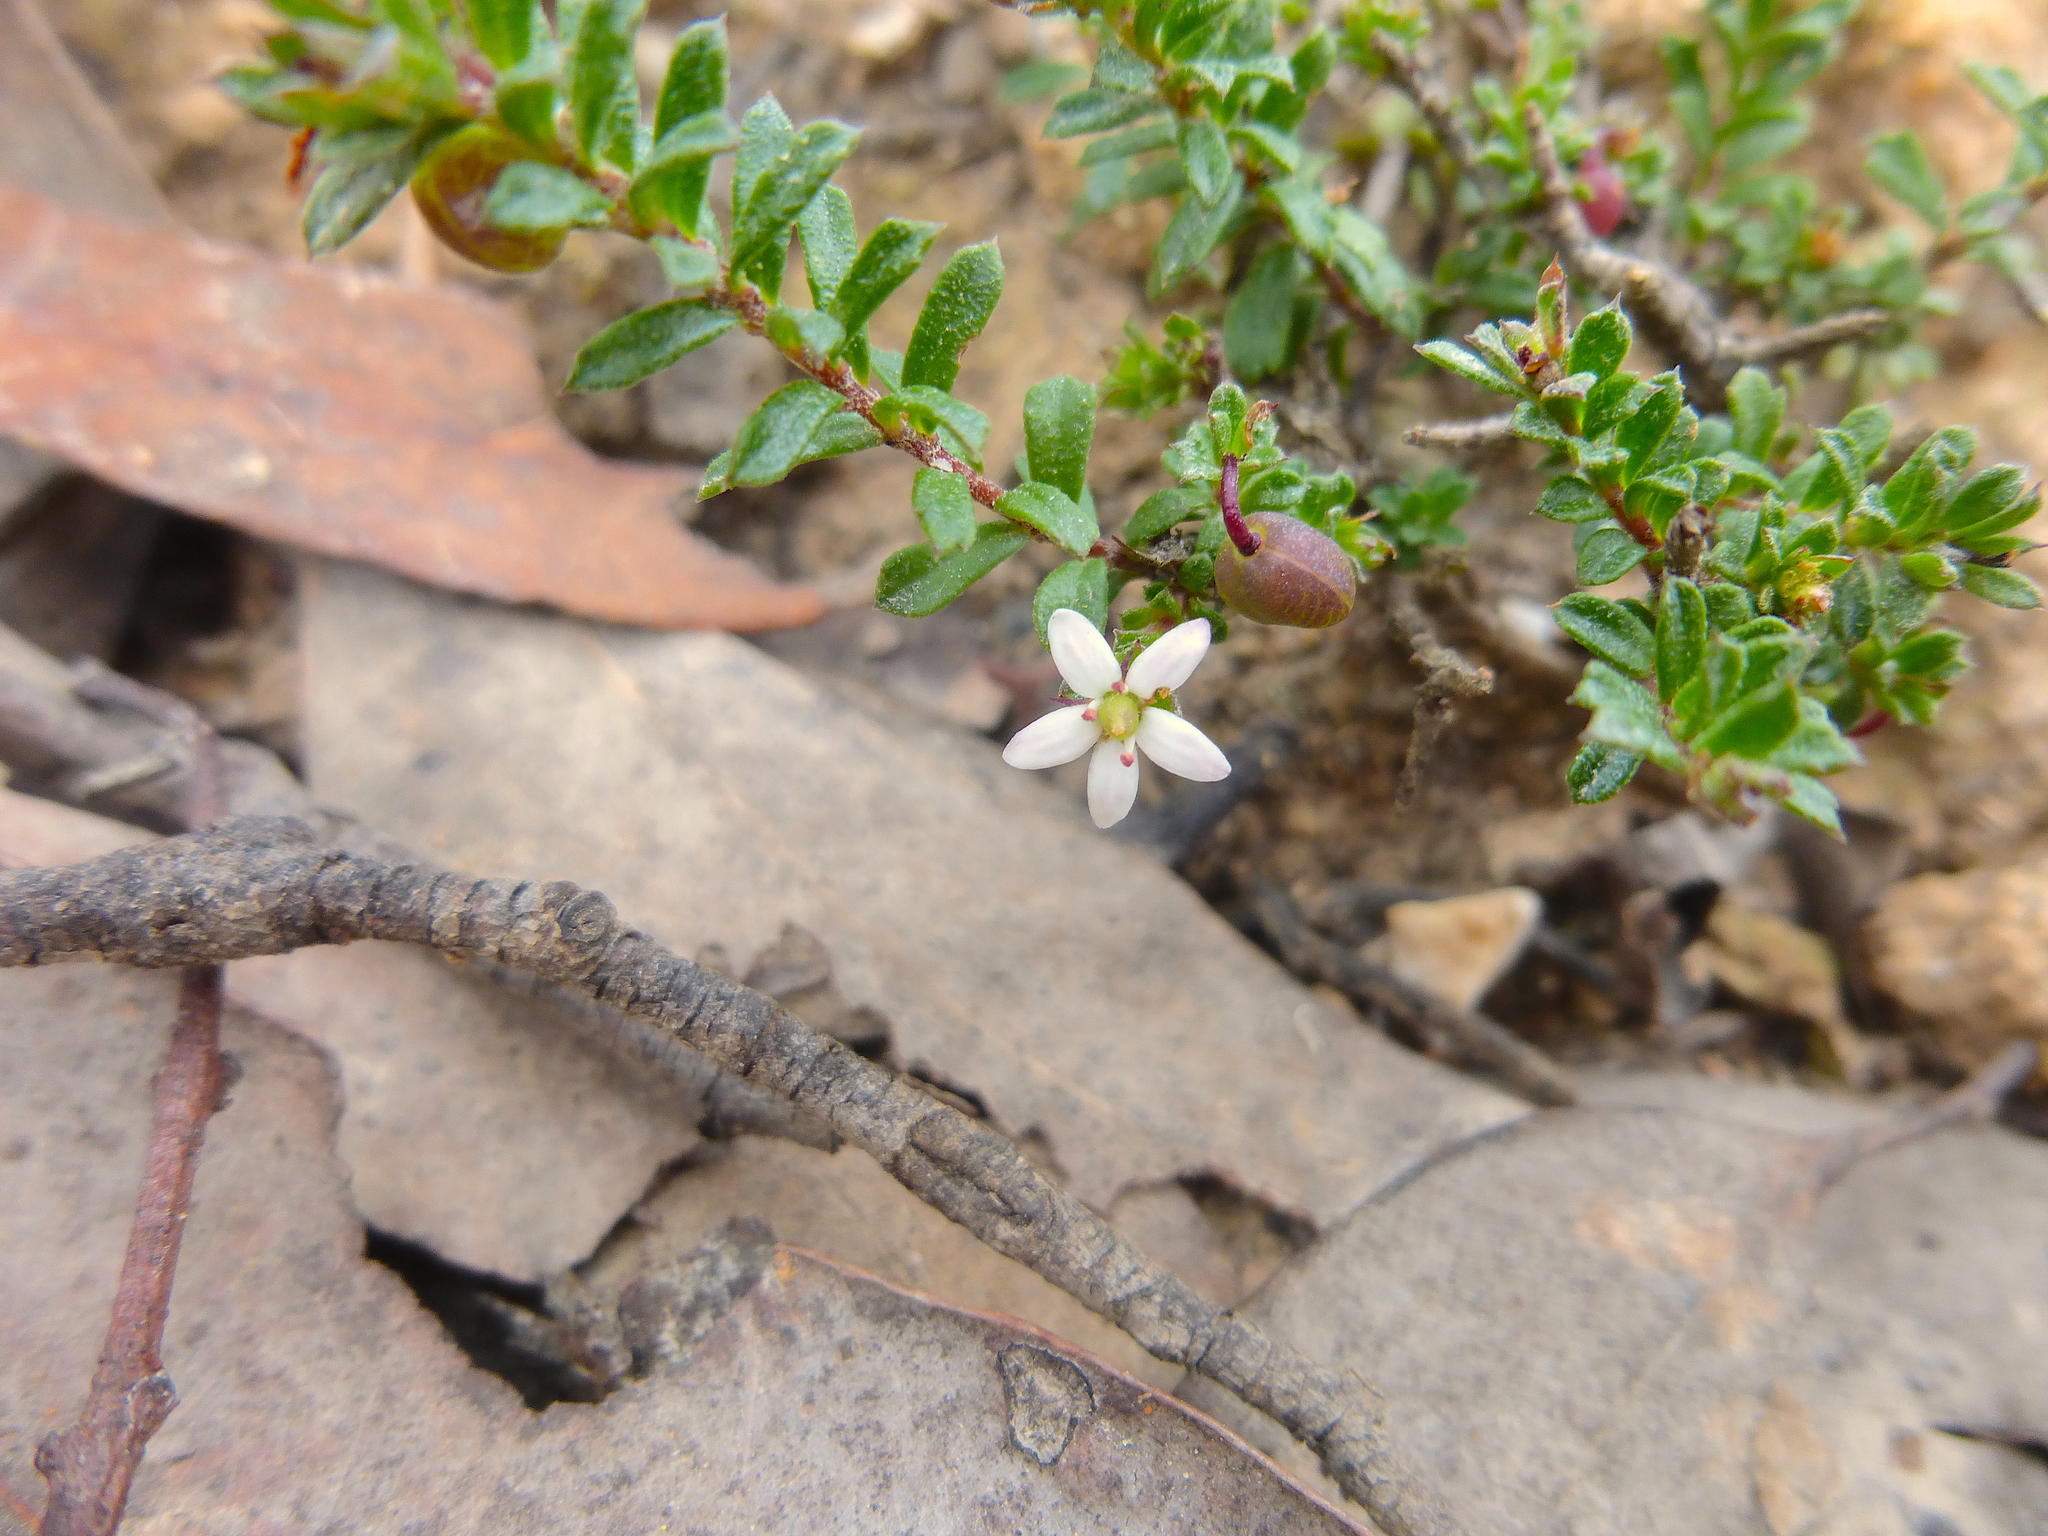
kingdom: Plantae
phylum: Tracheophyta
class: Magnoliopsida
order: Apiales
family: Pittosporaceae
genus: Rhytidosporum
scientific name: Rhytidosporum procumbens
